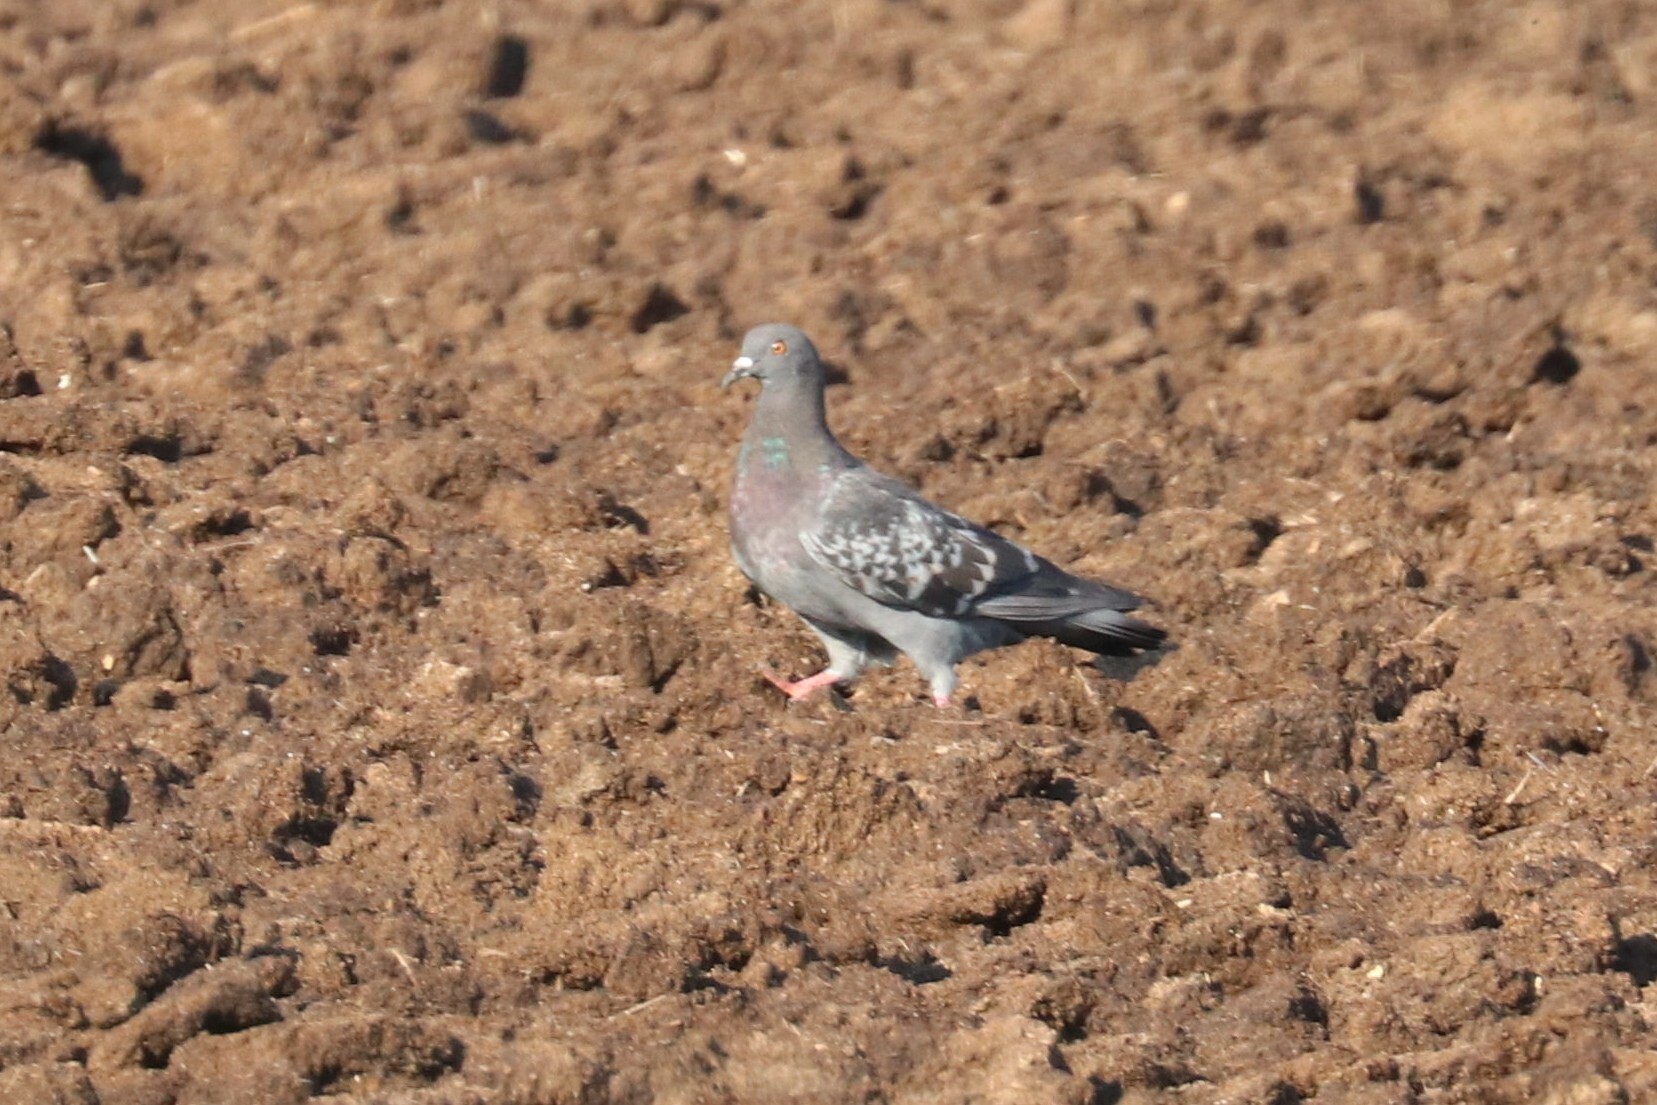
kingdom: Animalia
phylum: Chordata
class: Aves
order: Columbiformes
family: Columbidae
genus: Columba
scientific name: Columba livia
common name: Rock pigeon
